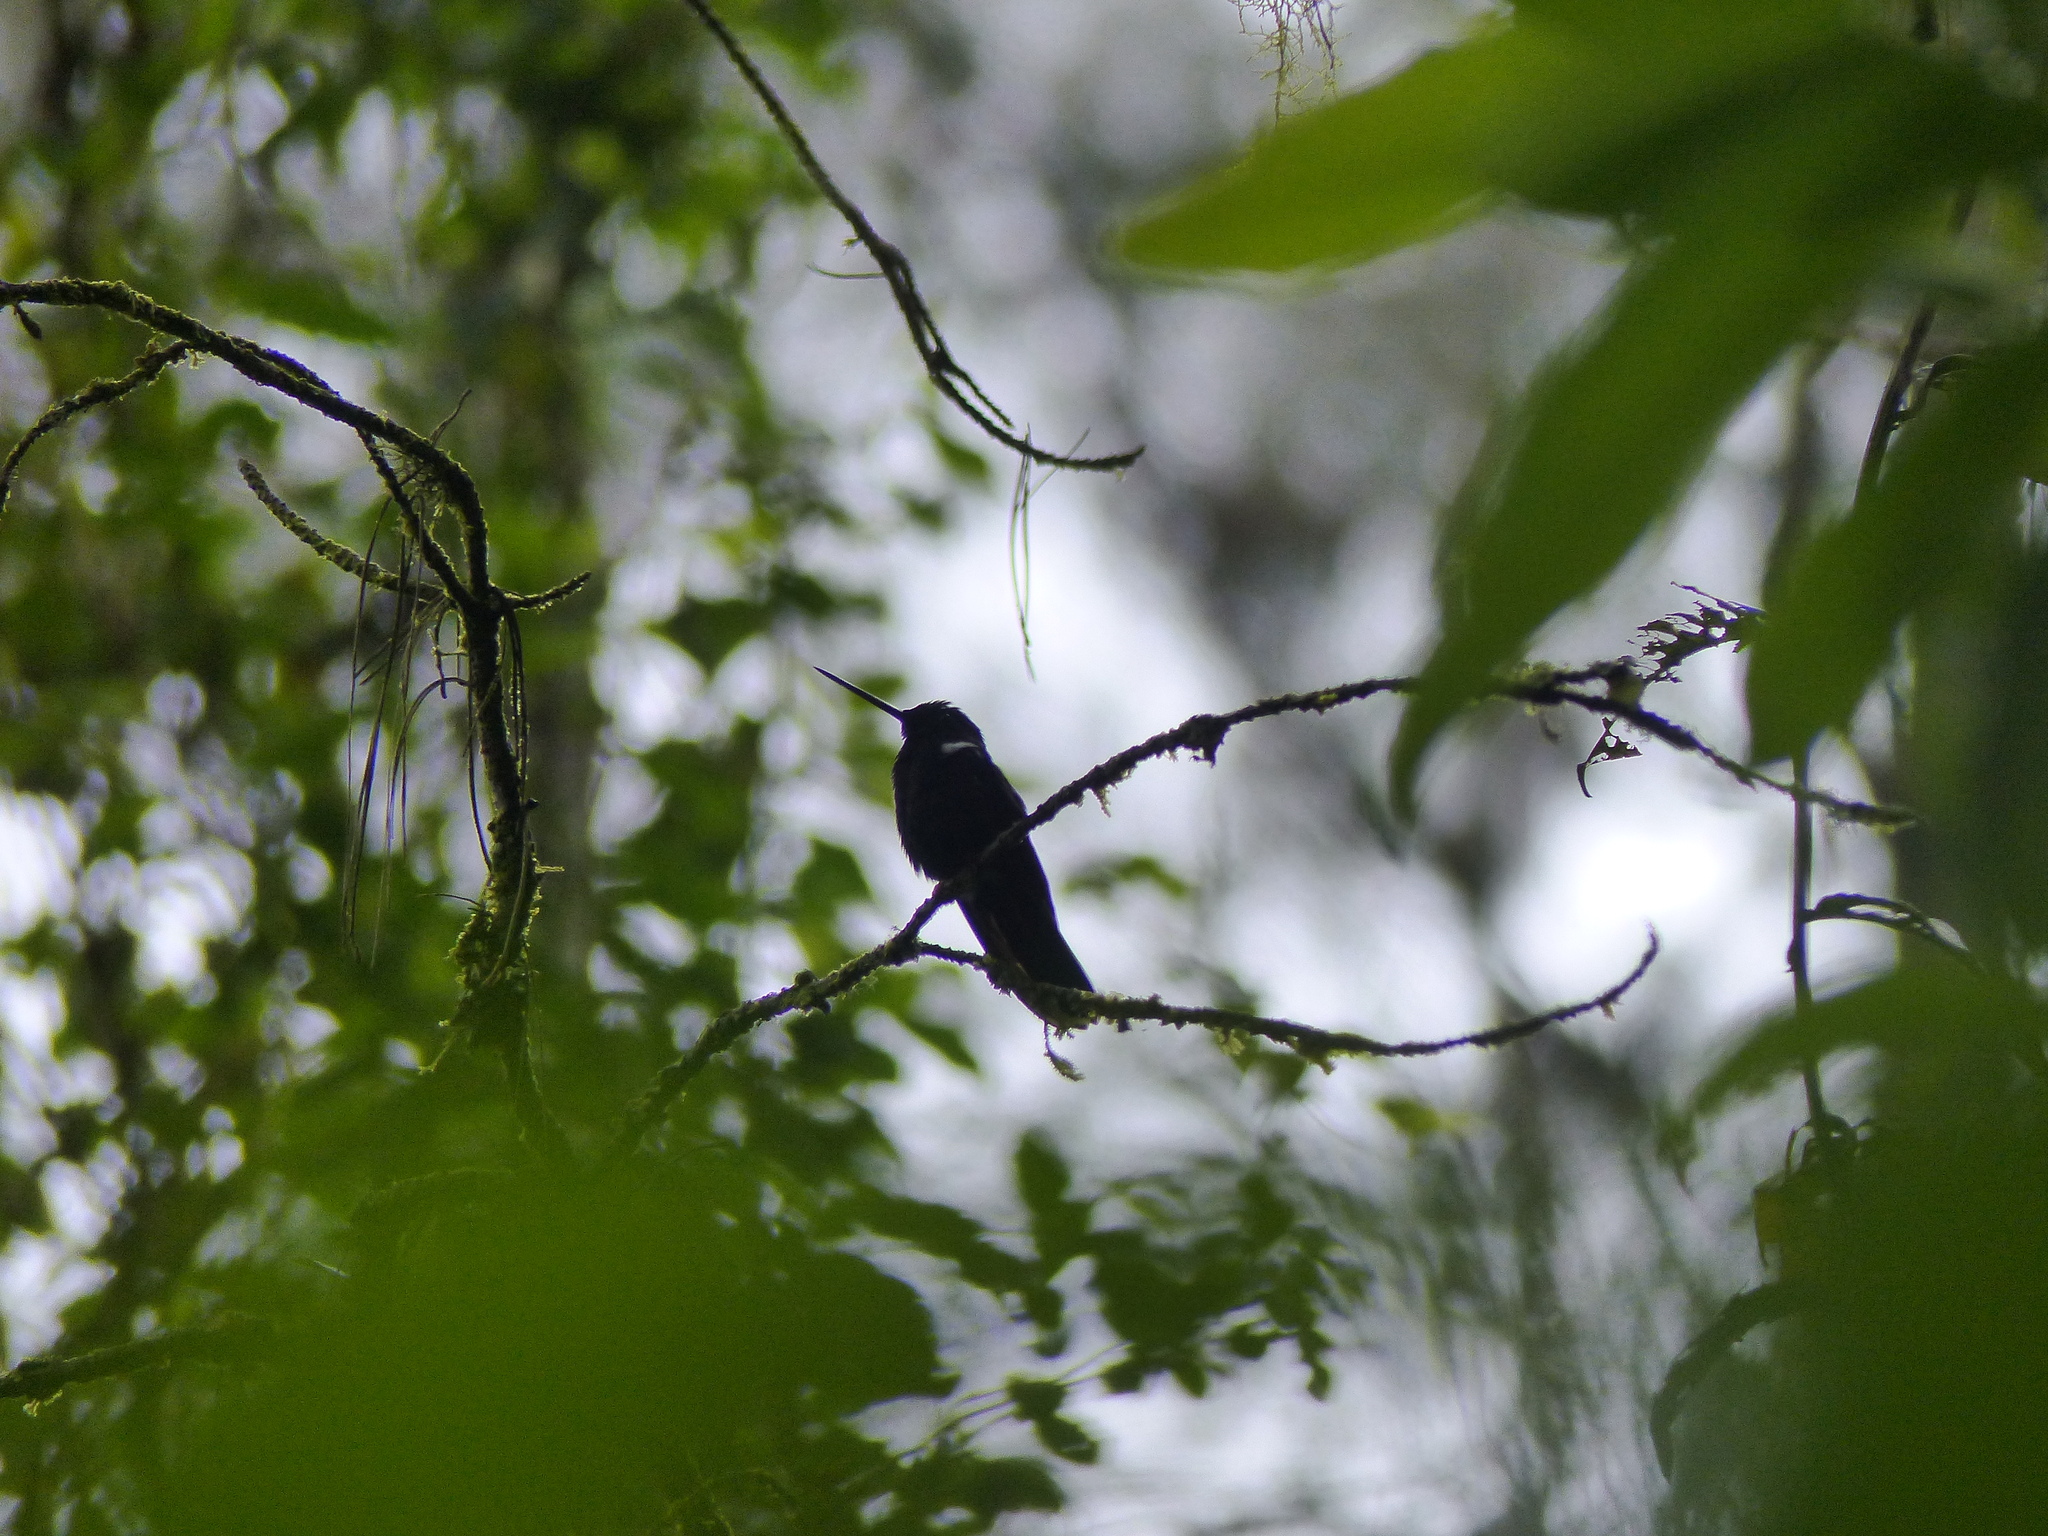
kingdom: Animalia
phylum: Chordata
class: Aves
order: Apodiformes
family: Trochilidae
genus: Coeligena
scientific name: Coeligena prunellei
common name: Black inca
